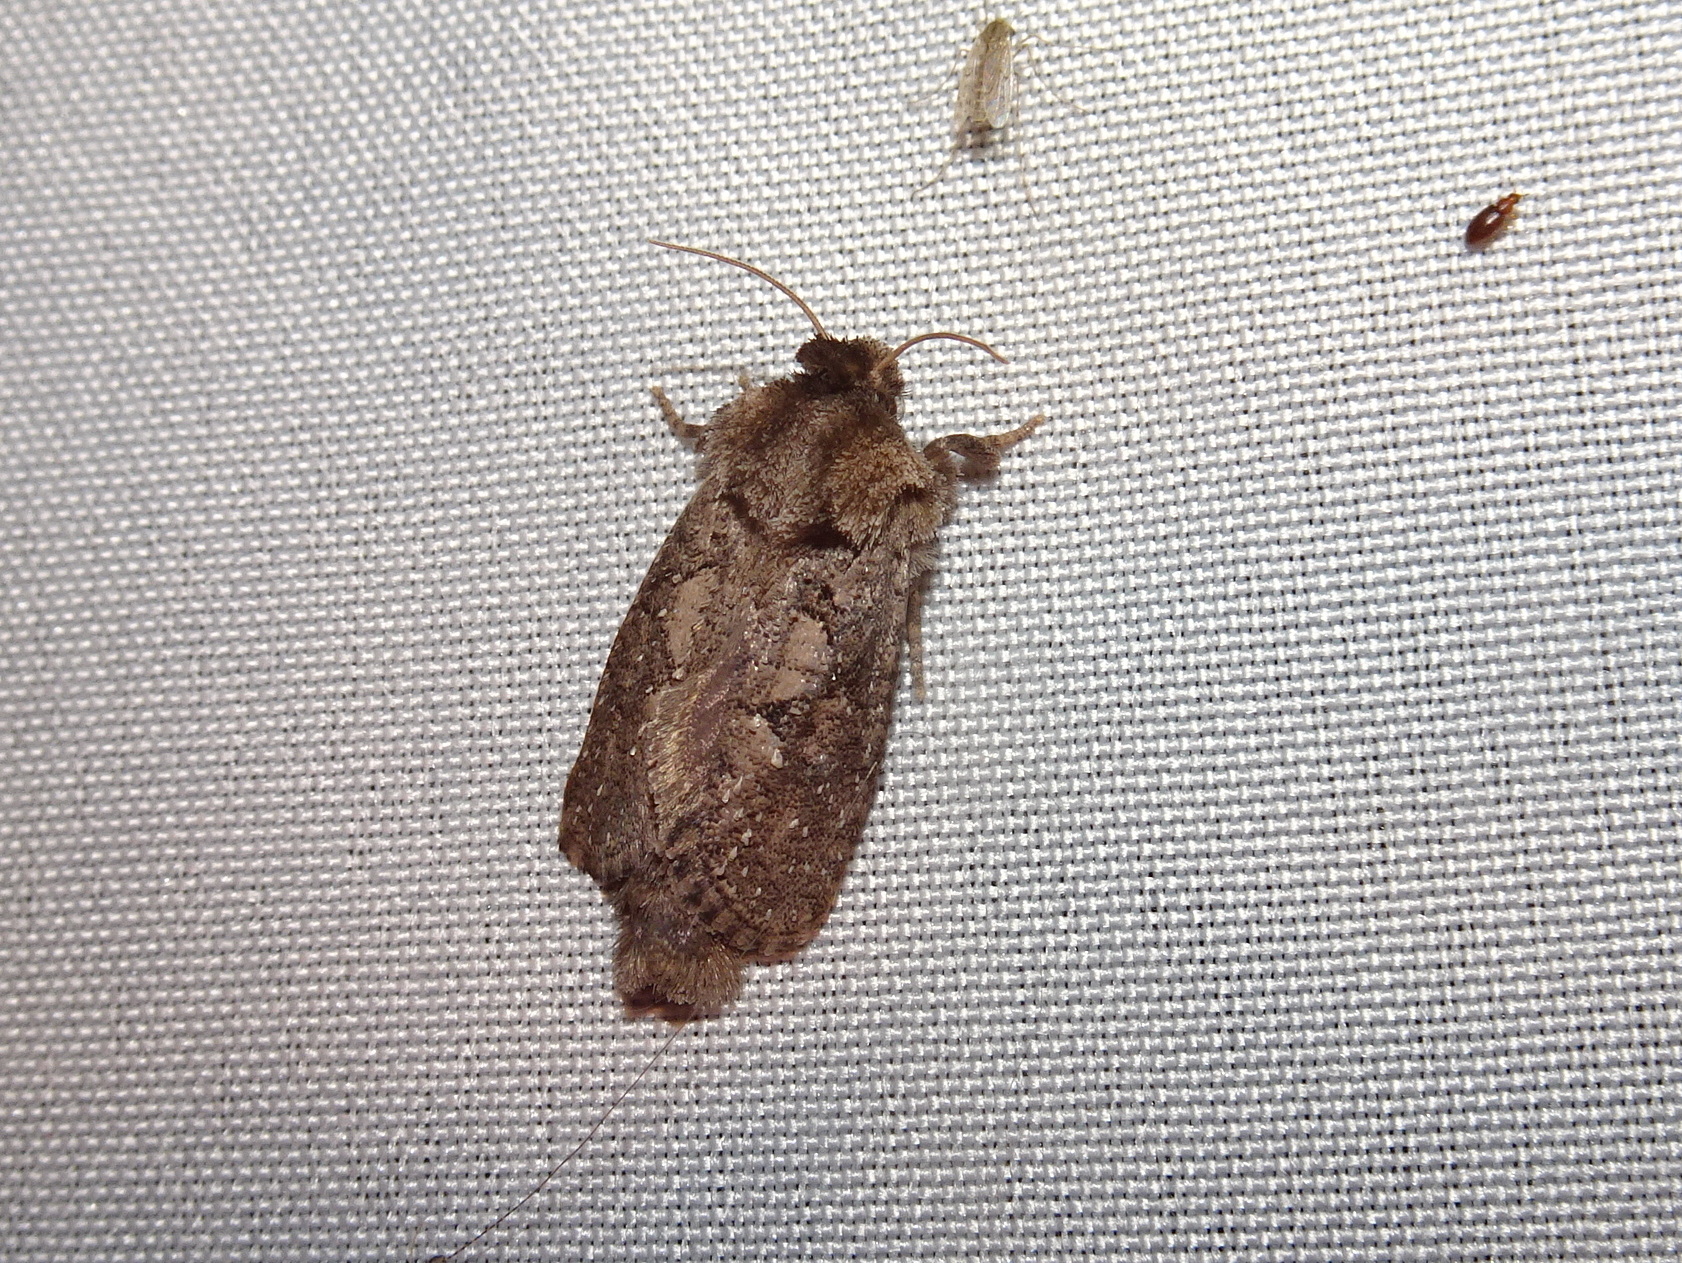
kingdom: Animalia
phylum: Arthropoda
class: Insecta
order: Lepidoptera
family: Tineidae
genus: Acrolophus
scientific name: Acrolophus arcanella
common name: Arcane grass tubeworm moth
